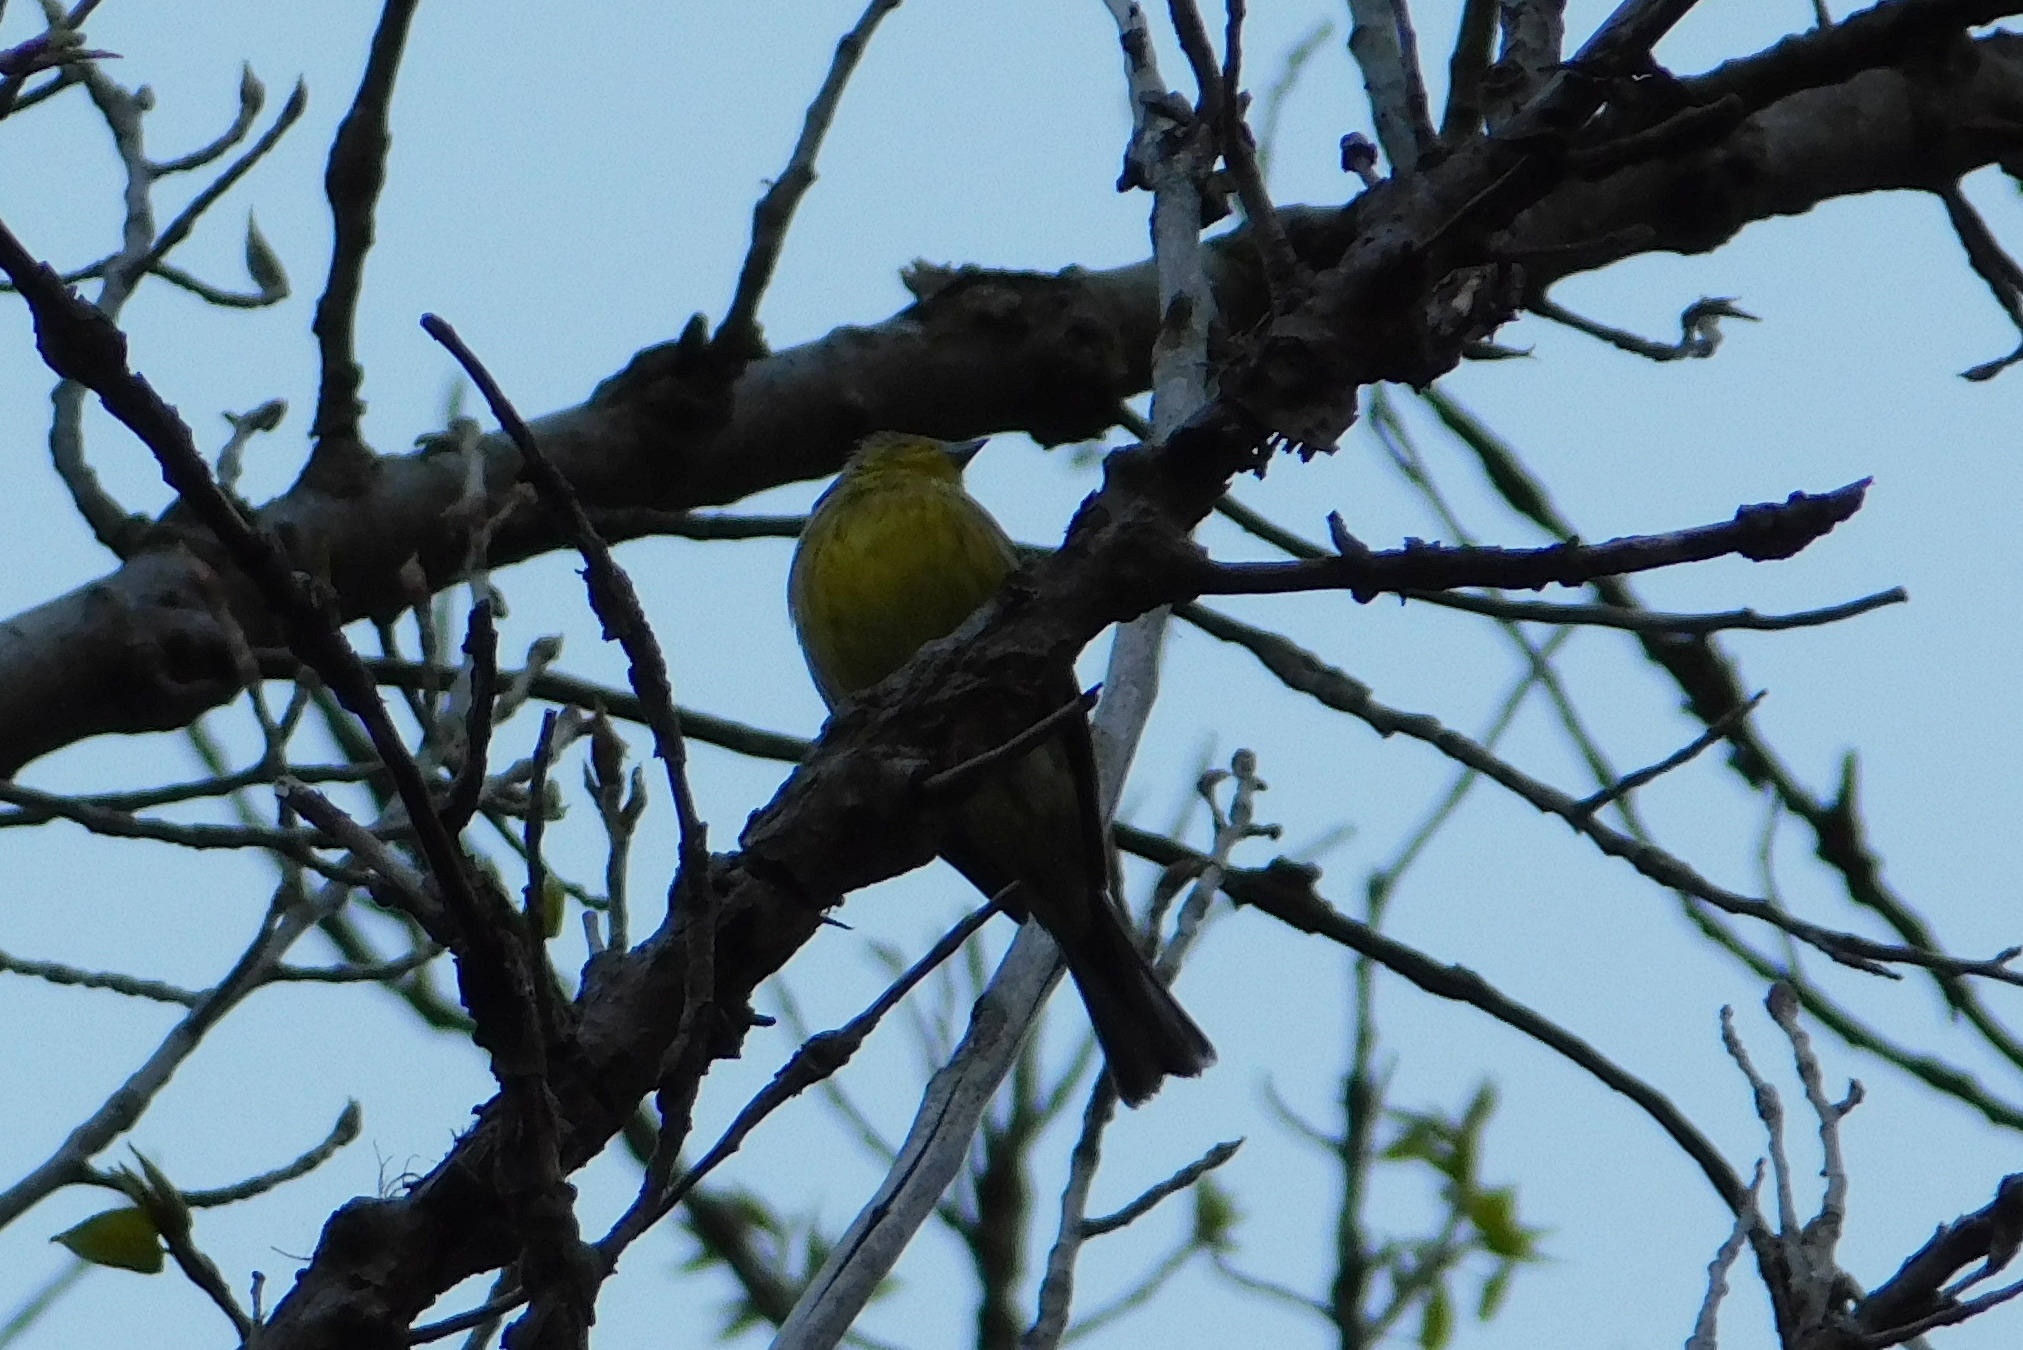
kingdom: Animalia
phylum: Chordata
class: Aves
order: Passeriformes
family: Emberizidae
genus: Emberiza
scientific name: Emberiza citrinella
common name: Yellowhammer
